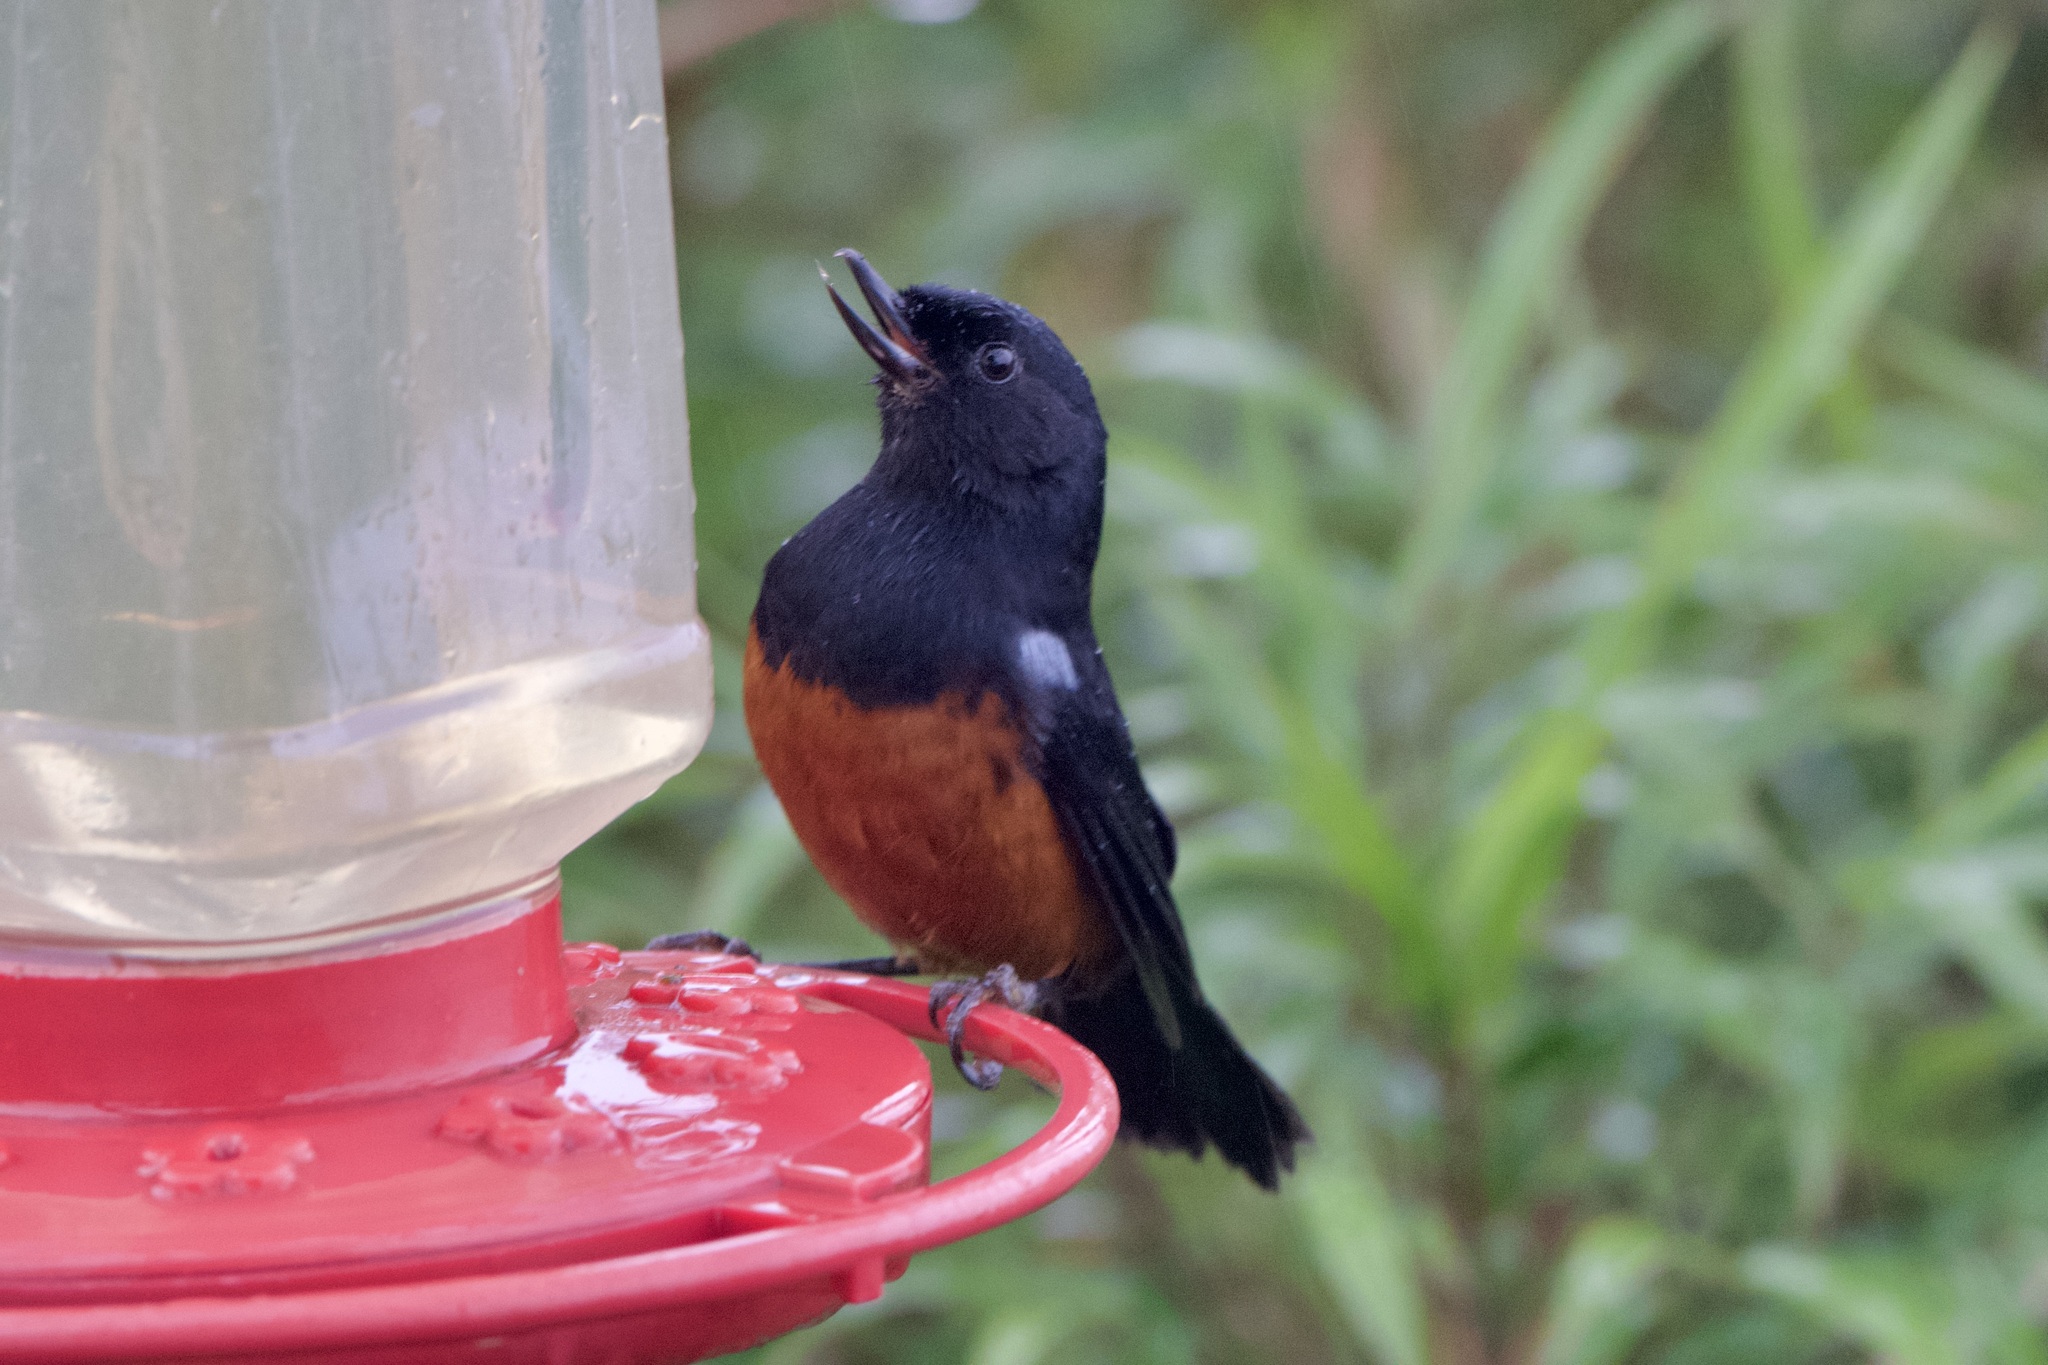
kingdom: Animalia
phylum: Chordata
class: Aves
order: Passeriformes
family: Thraupidae
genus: Diglossa
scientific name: Diglossa gloriosissima
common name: Chestnut-bellied flowerpiercer
